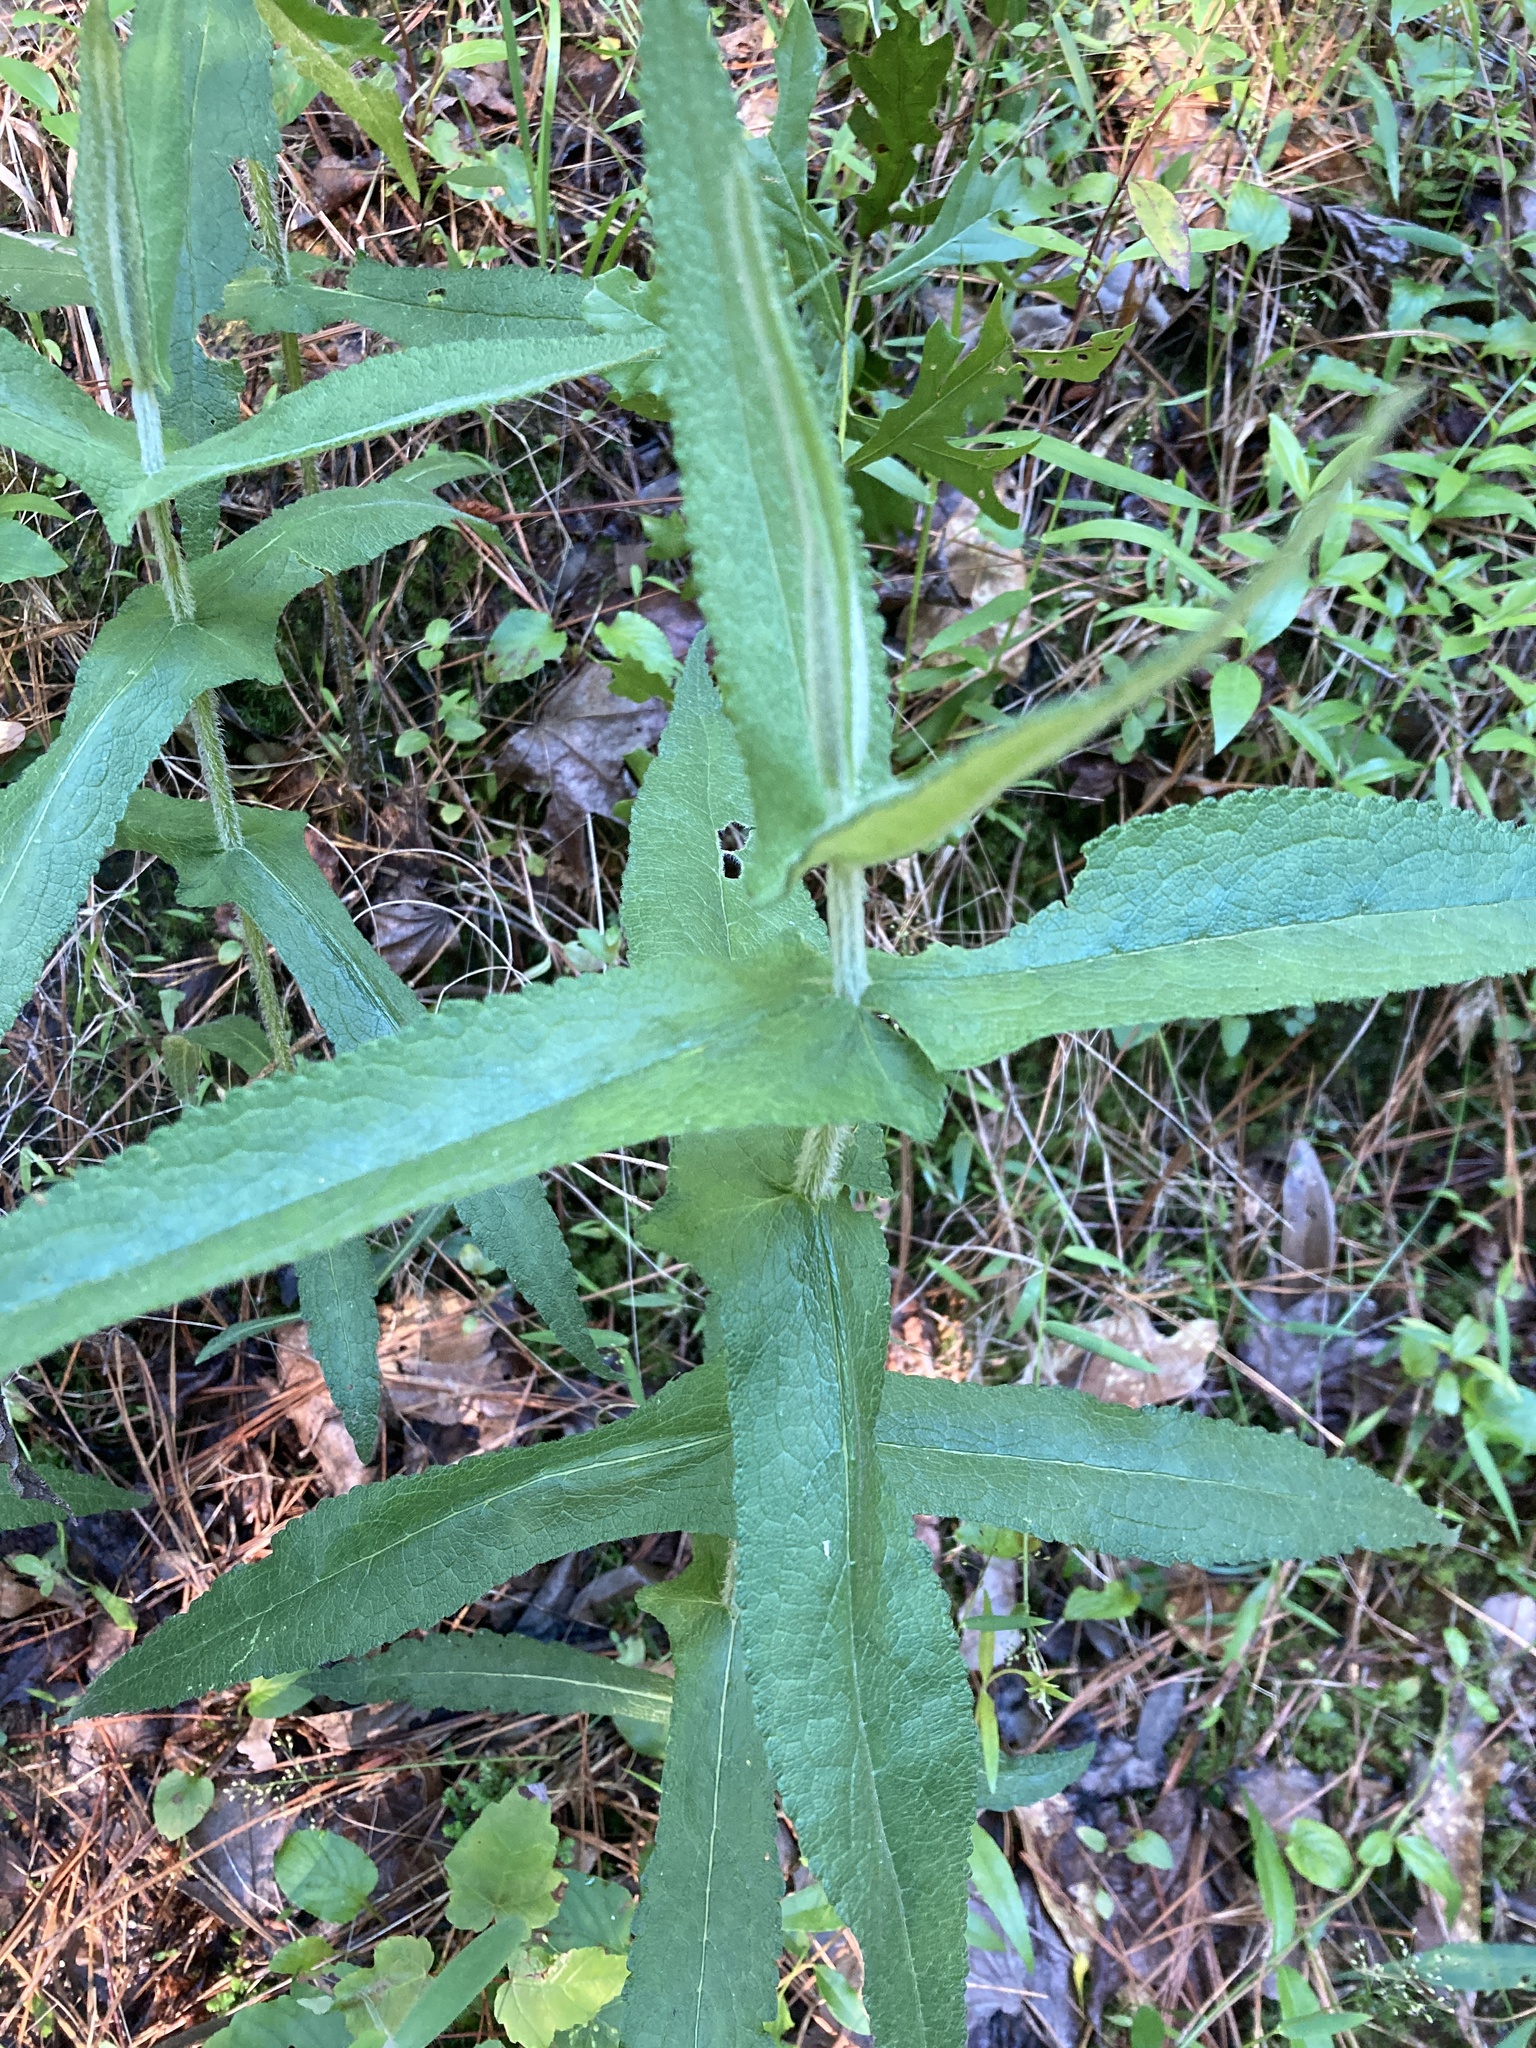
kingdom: Plantae
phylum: Tracheophyta
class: Magnoliopsida
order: Asterales
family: Asteraceae
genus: Eupatorium
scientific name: Eupatorium perfoliatum
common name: Boneset
